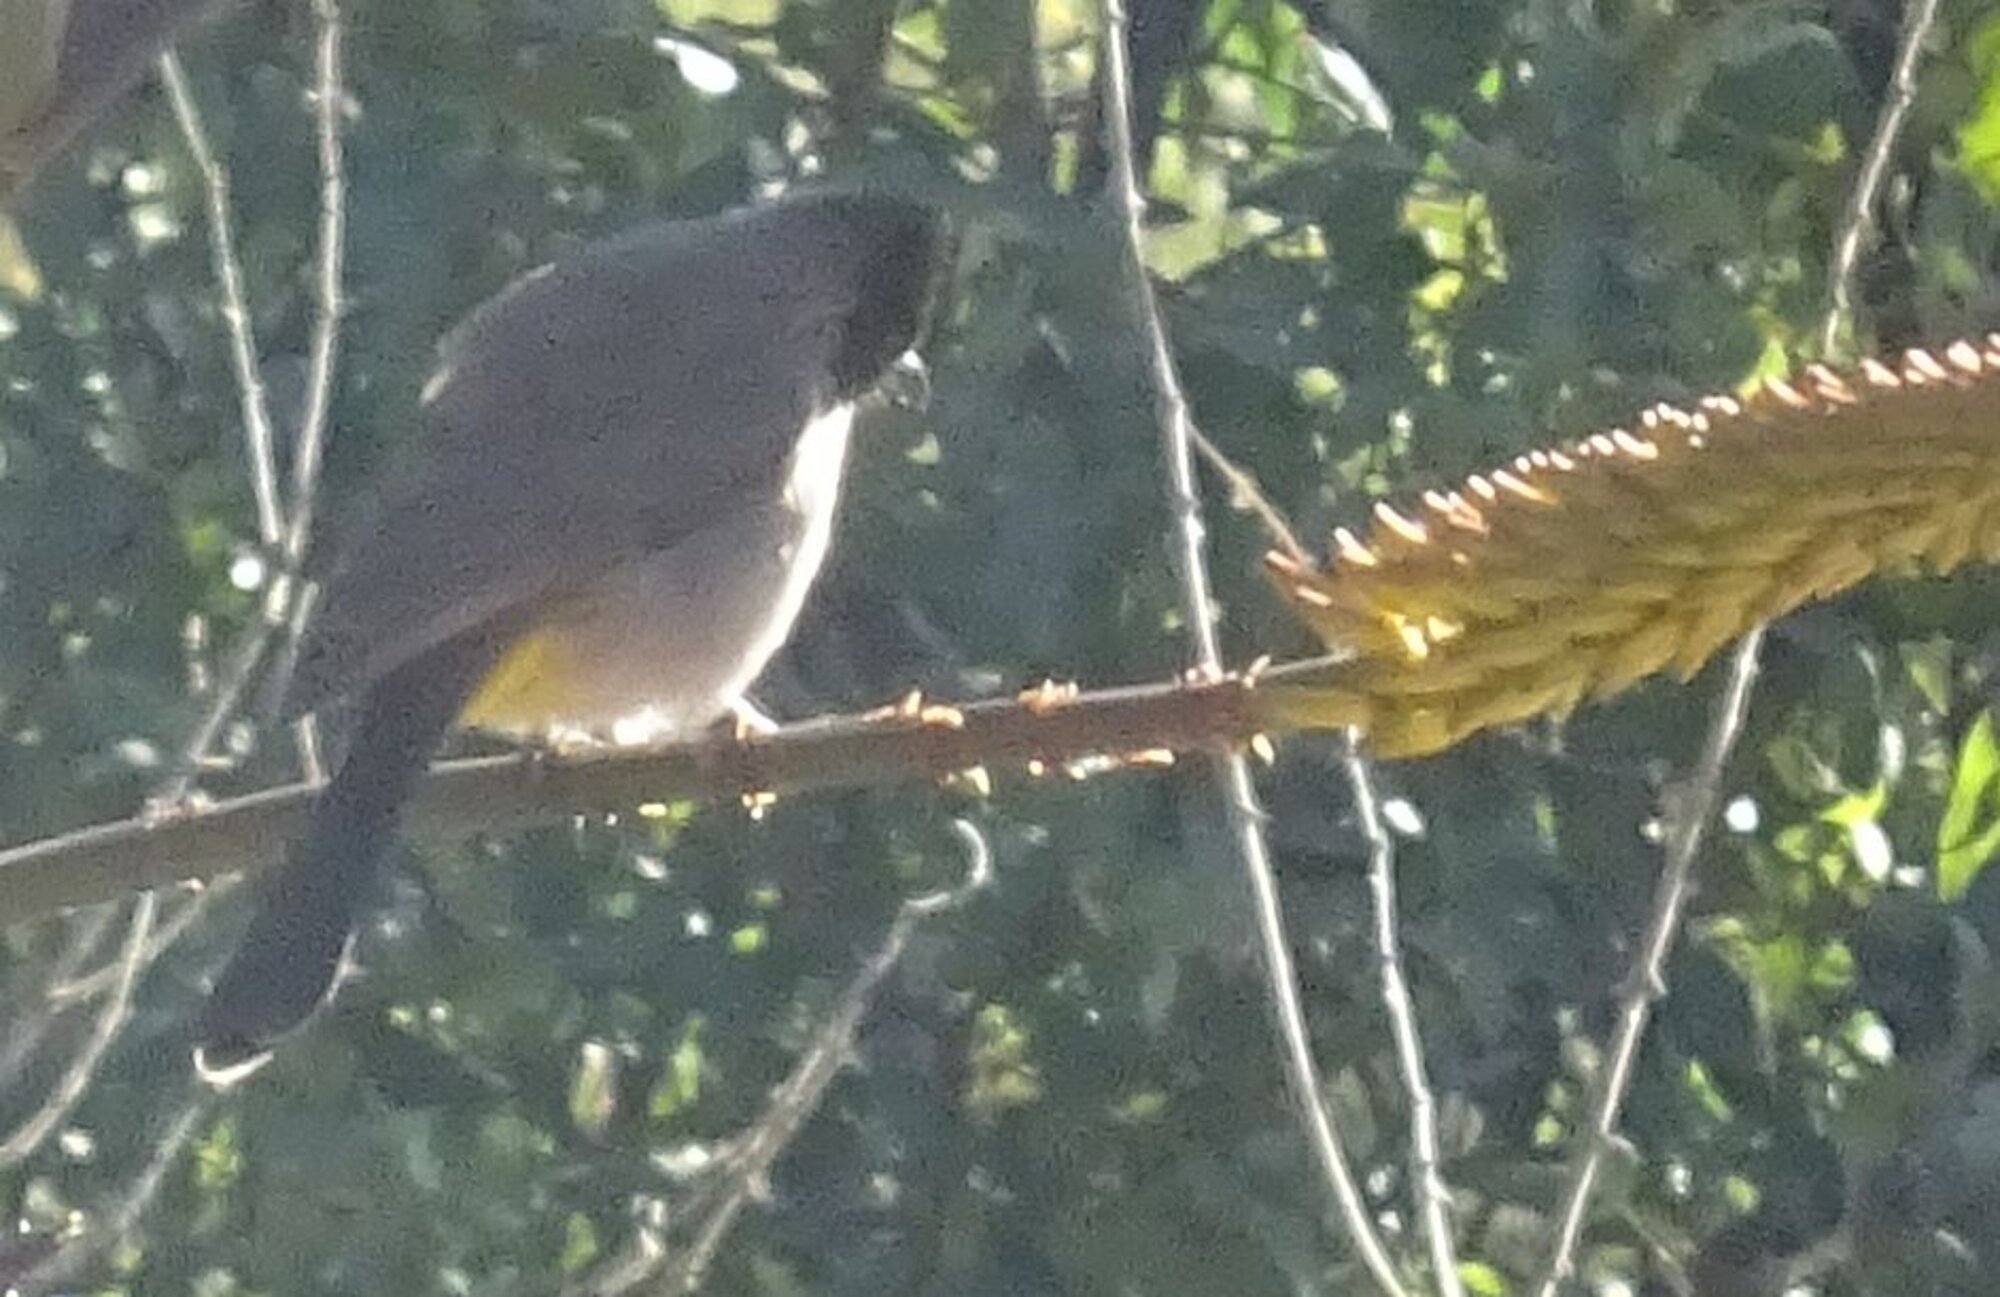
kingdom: Animalia
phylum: Chordata
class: Aves
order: Passeriformes
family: Pycnonotidae
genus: Pycnonotus
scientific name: Pycnonotus barbatus
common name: Common bulbul
